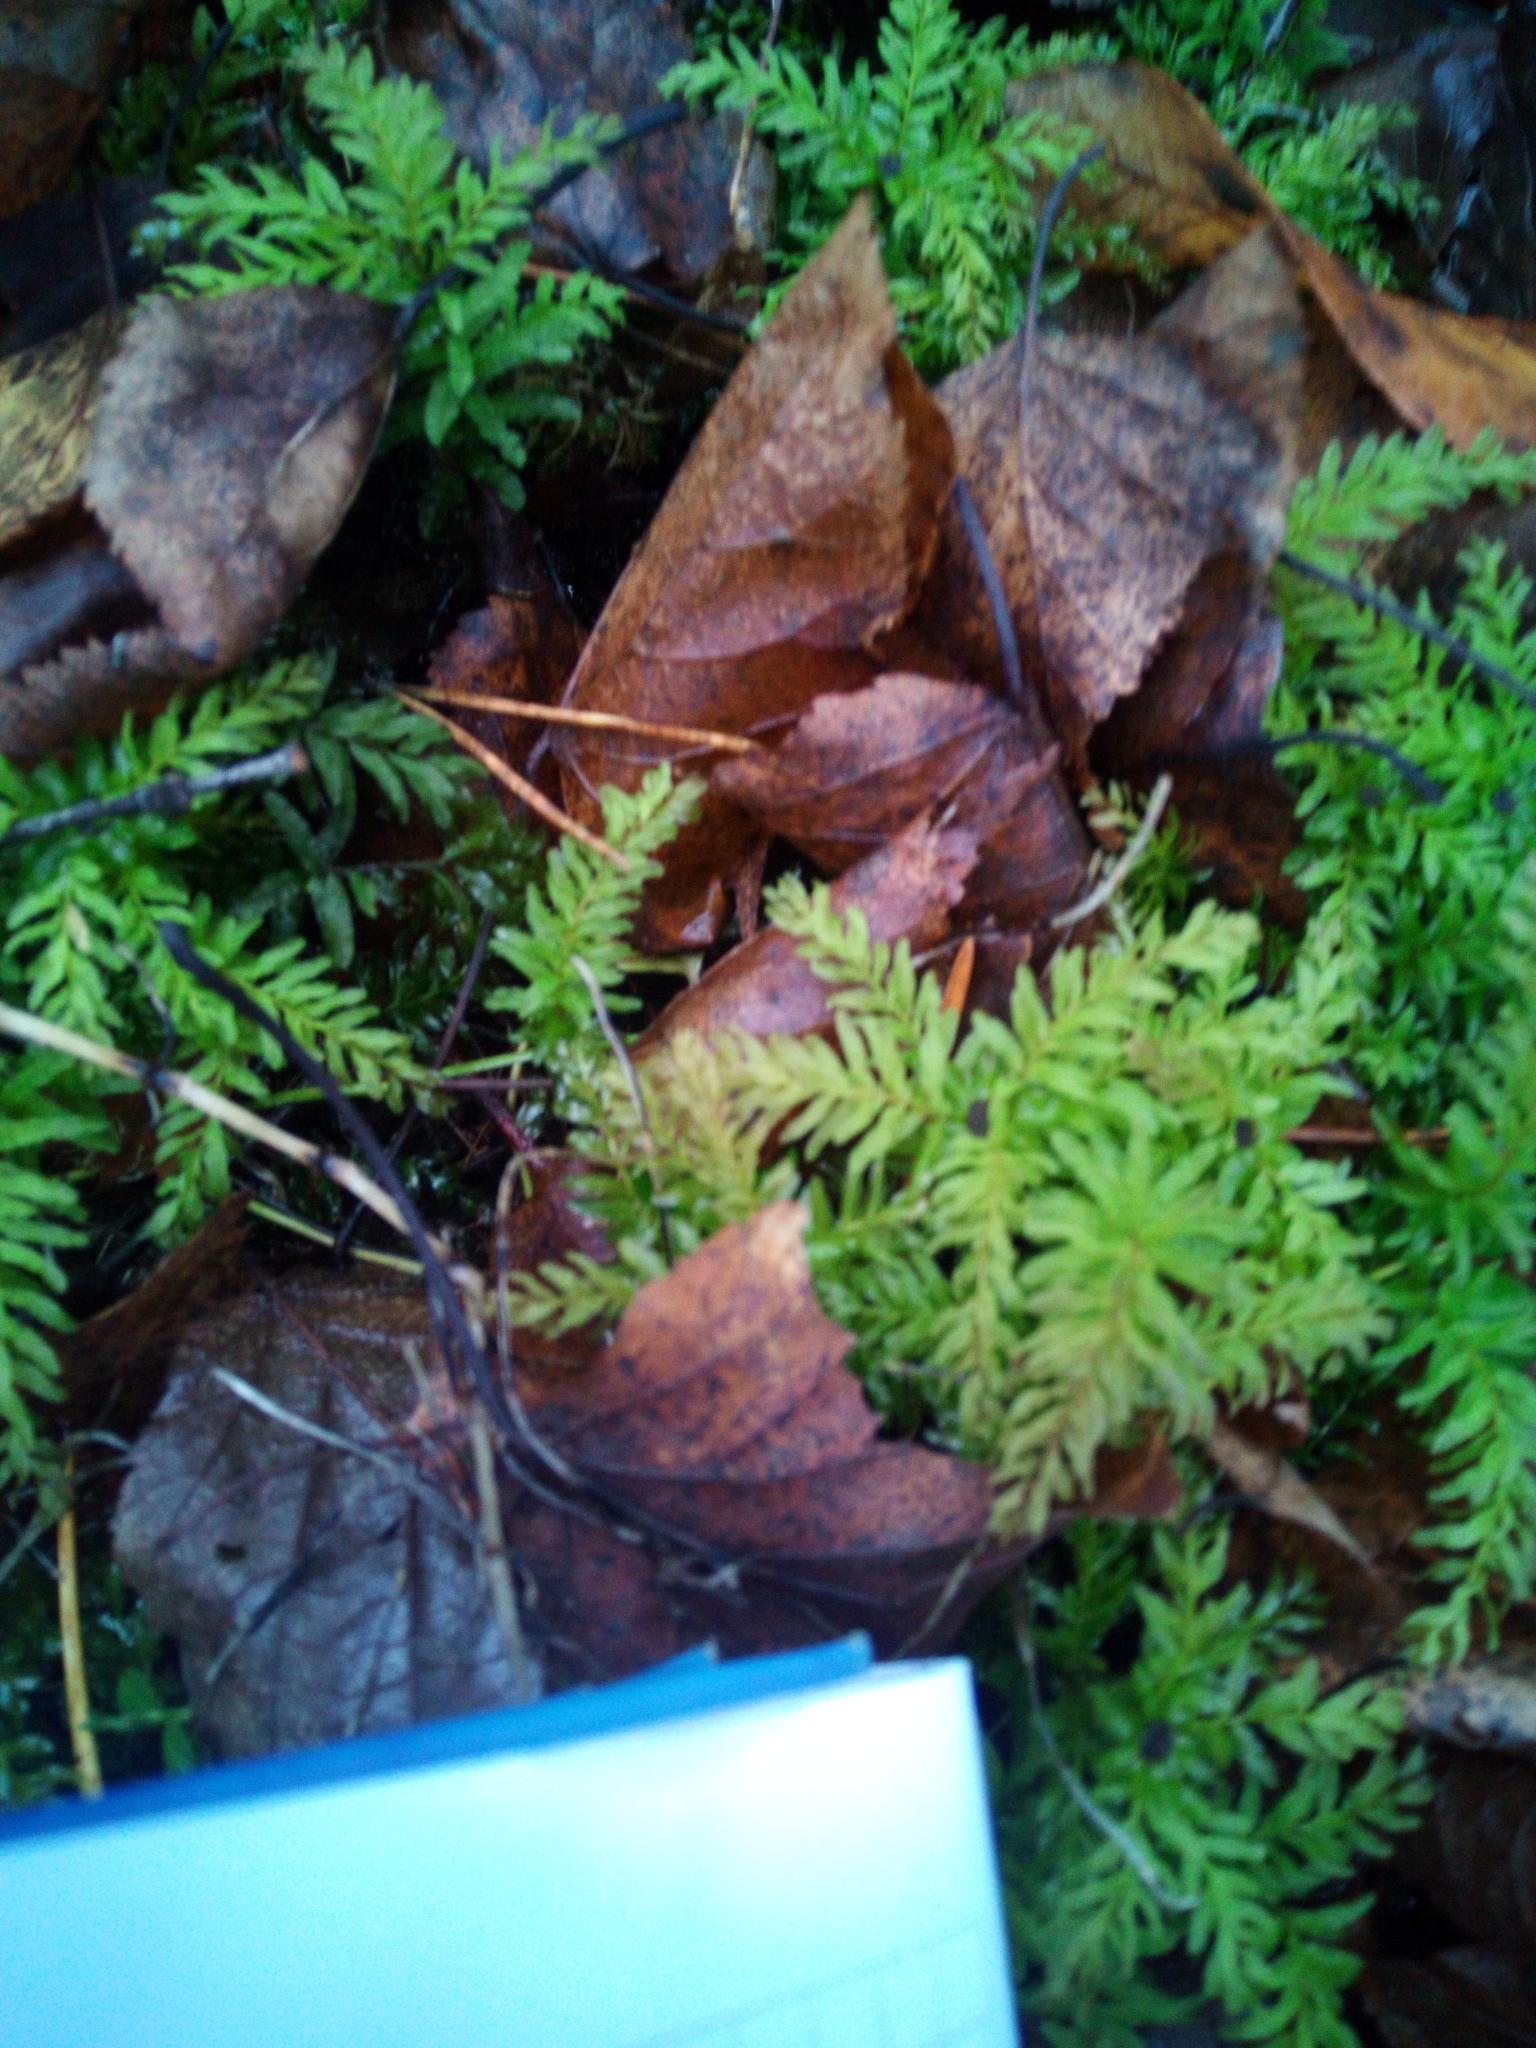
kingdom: Plantae
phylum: Bryophyta
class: Bryopsida
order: Bryales
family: Mniaceae
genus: Plagiomnium
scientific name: Plagiomnium undulatum
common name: Hart's-tongue thyme-moss
